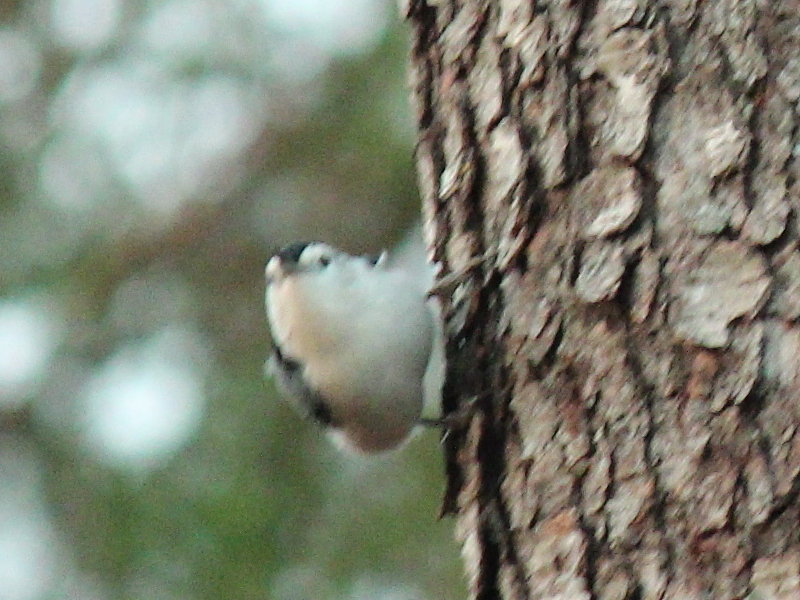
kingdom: Animalia
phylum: Chordata
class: Aves
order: Passeriformes
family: Sittidae
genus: Sitta
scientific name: Sitta carolinensis
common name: White-breasted nuthatch
